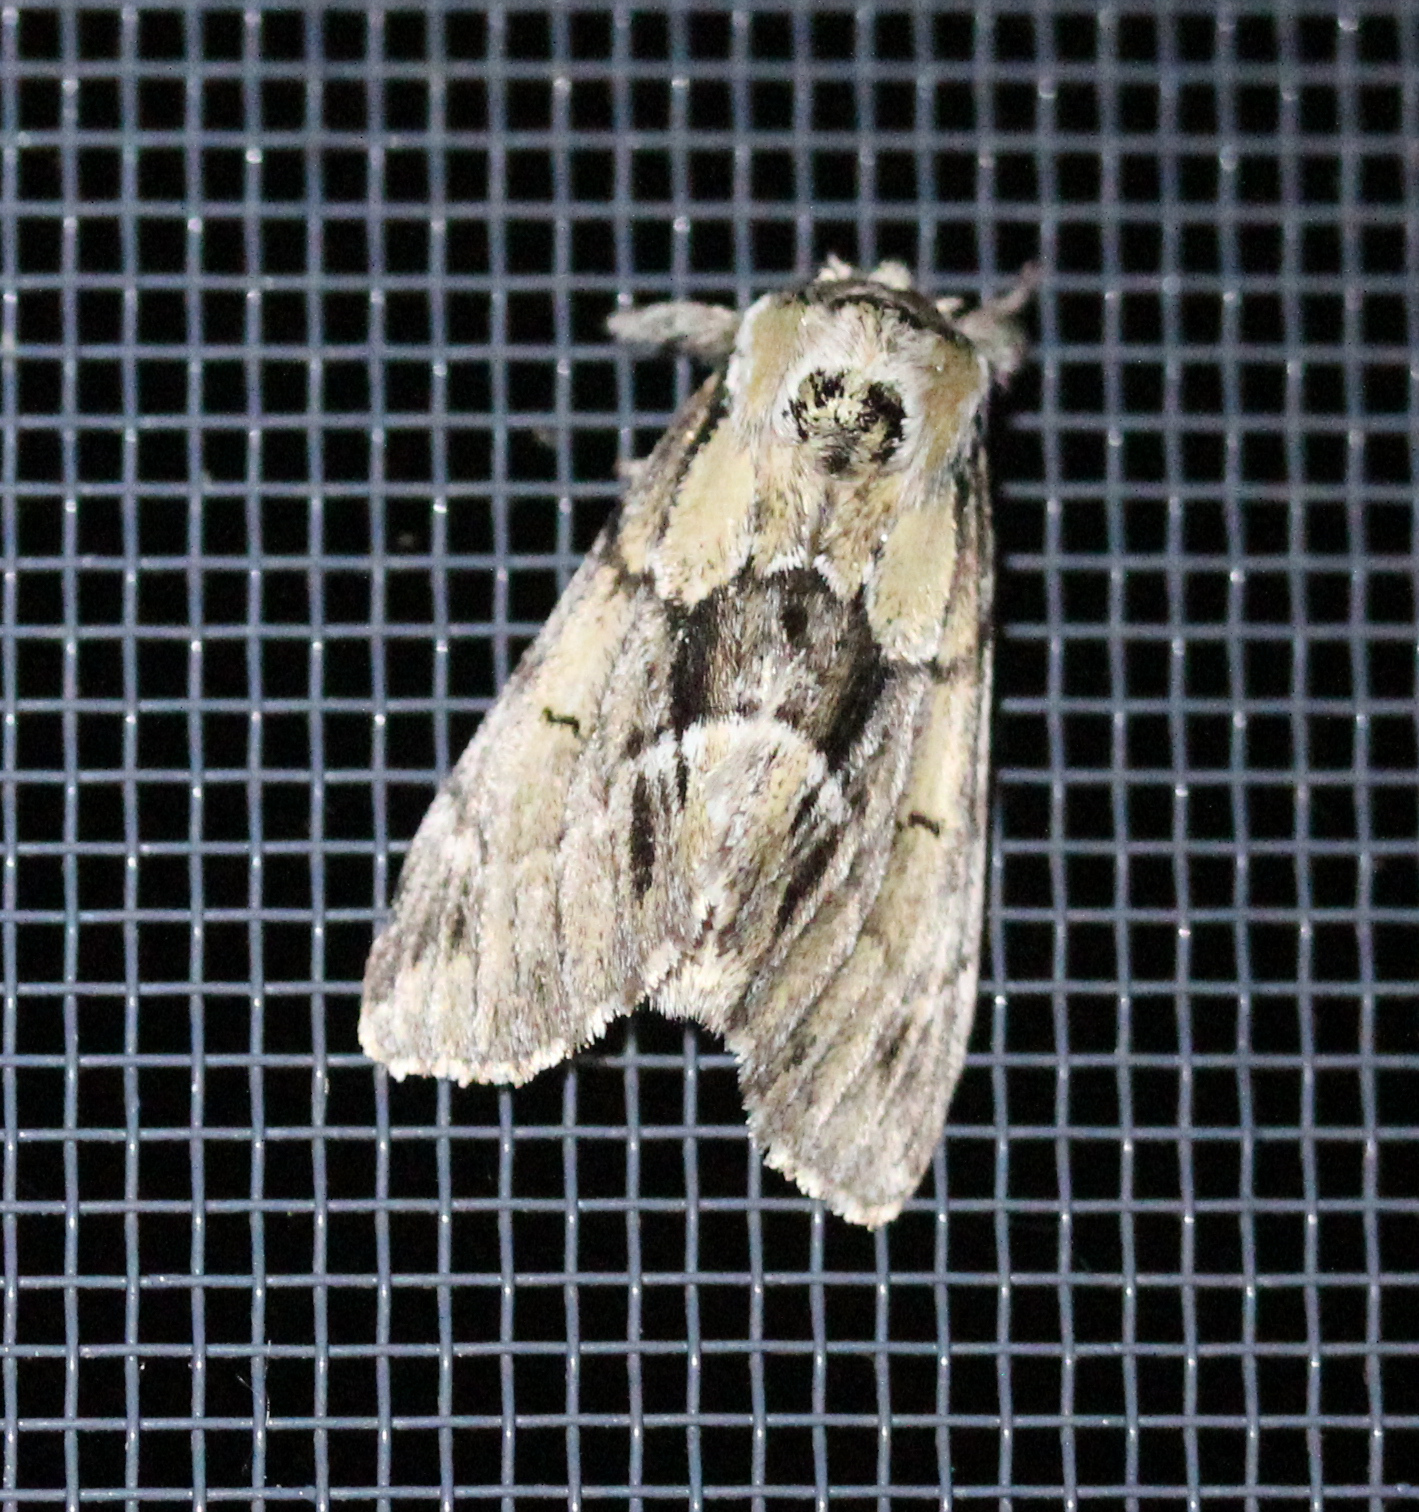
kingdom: Animalia
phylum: Arthropoda
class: Insecta
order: Lepidoptera
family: Notodontidae
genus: Paraeschra
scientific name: Paraeschra georgica
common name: Georgian prominent
